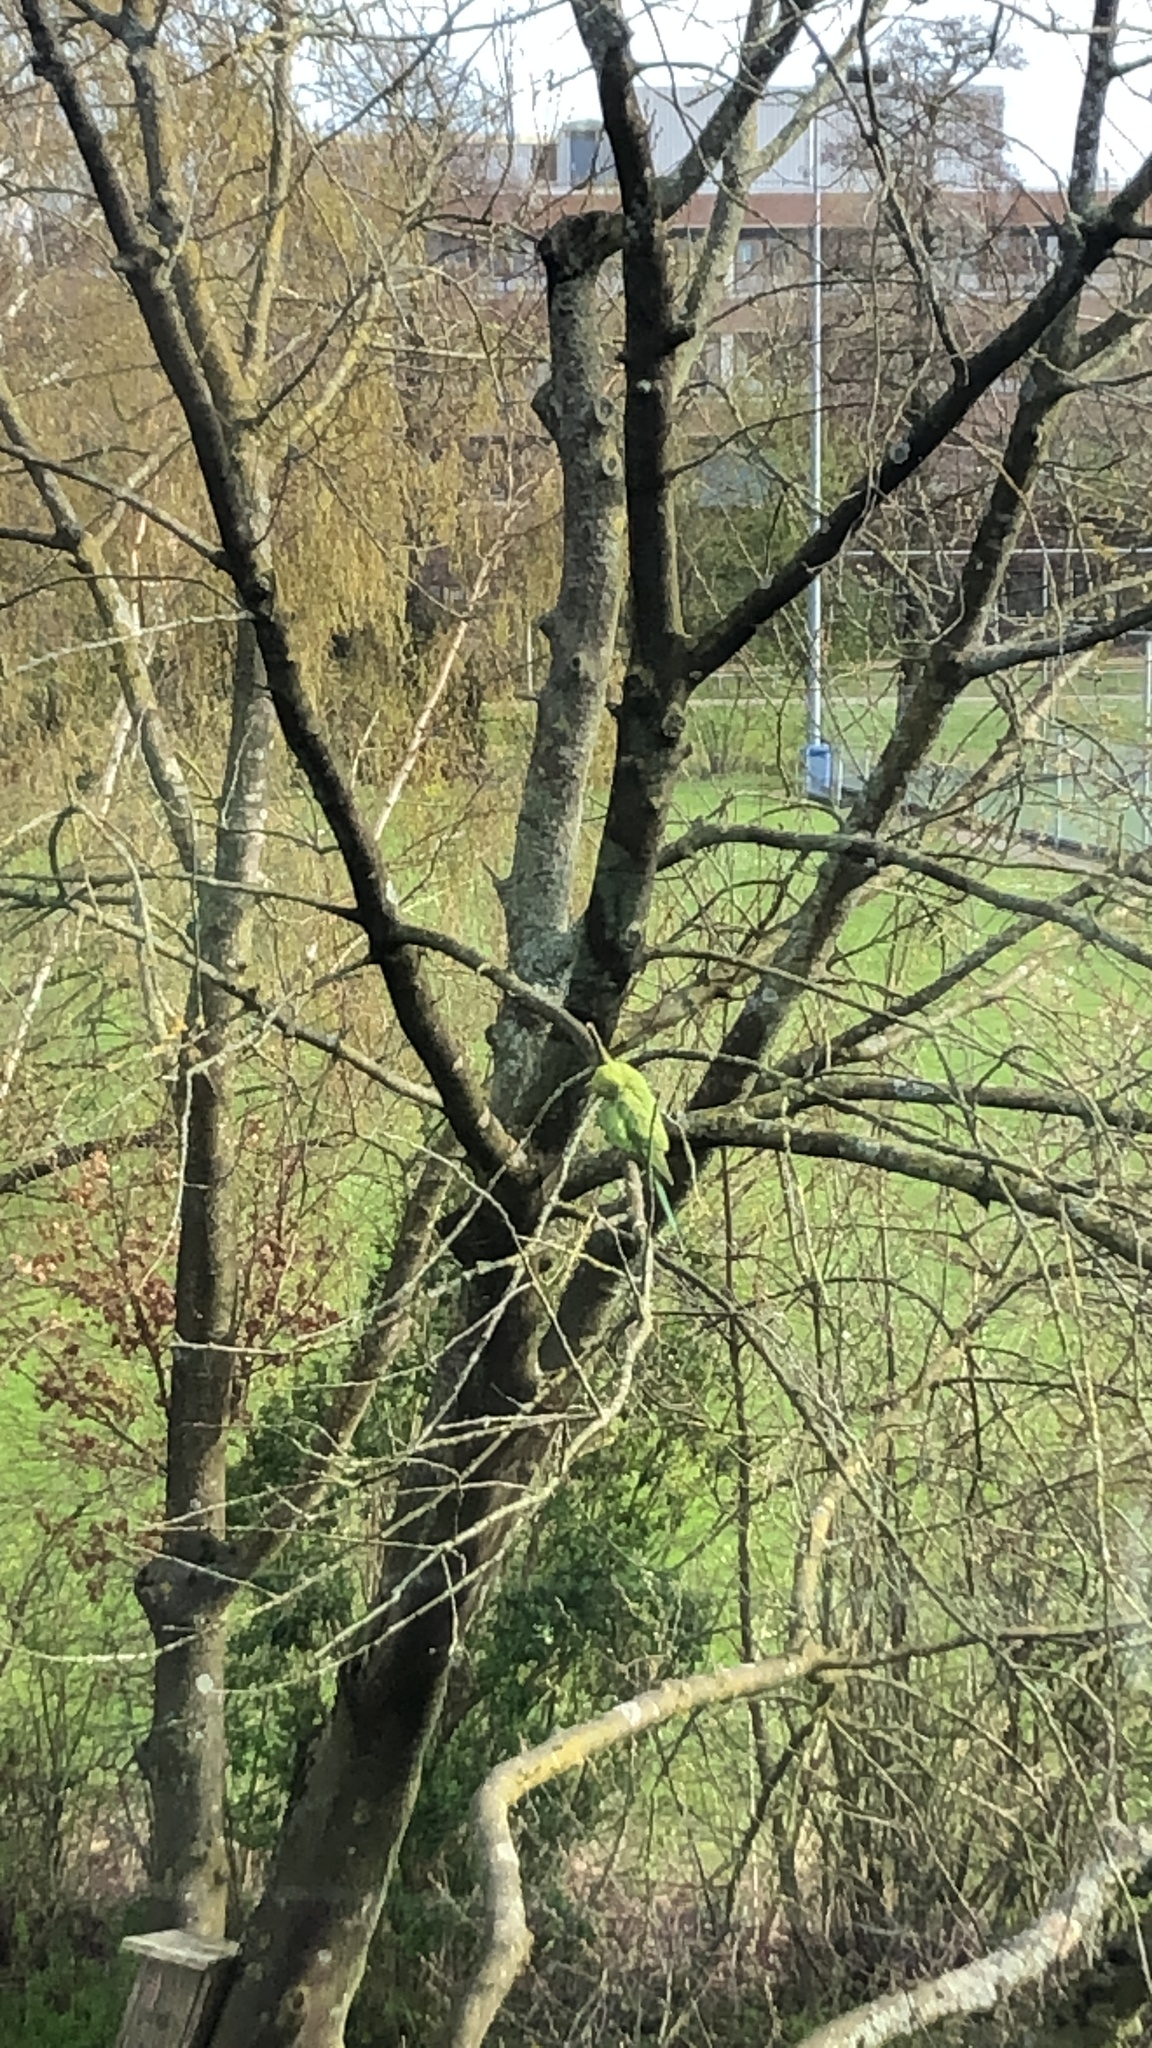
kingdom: Animalia
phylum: Chordata
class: Aves
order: Psittaciformes
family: Psittacidae
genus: Psittacula
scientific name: Psittacula krameri
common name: Rose-ringed parakeet
